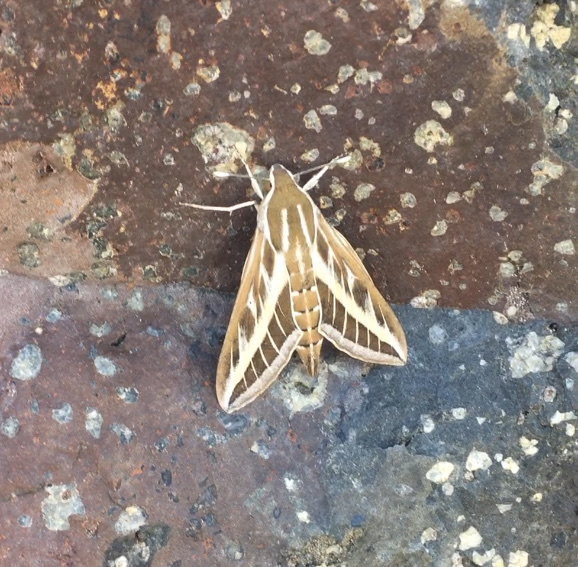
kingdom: Animalia
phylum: Arthropoda
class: Insecta
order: Lepidoptera
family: Sphingidae
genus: Hyles
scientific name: Hyles livornica
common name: Striped hawk-moth
